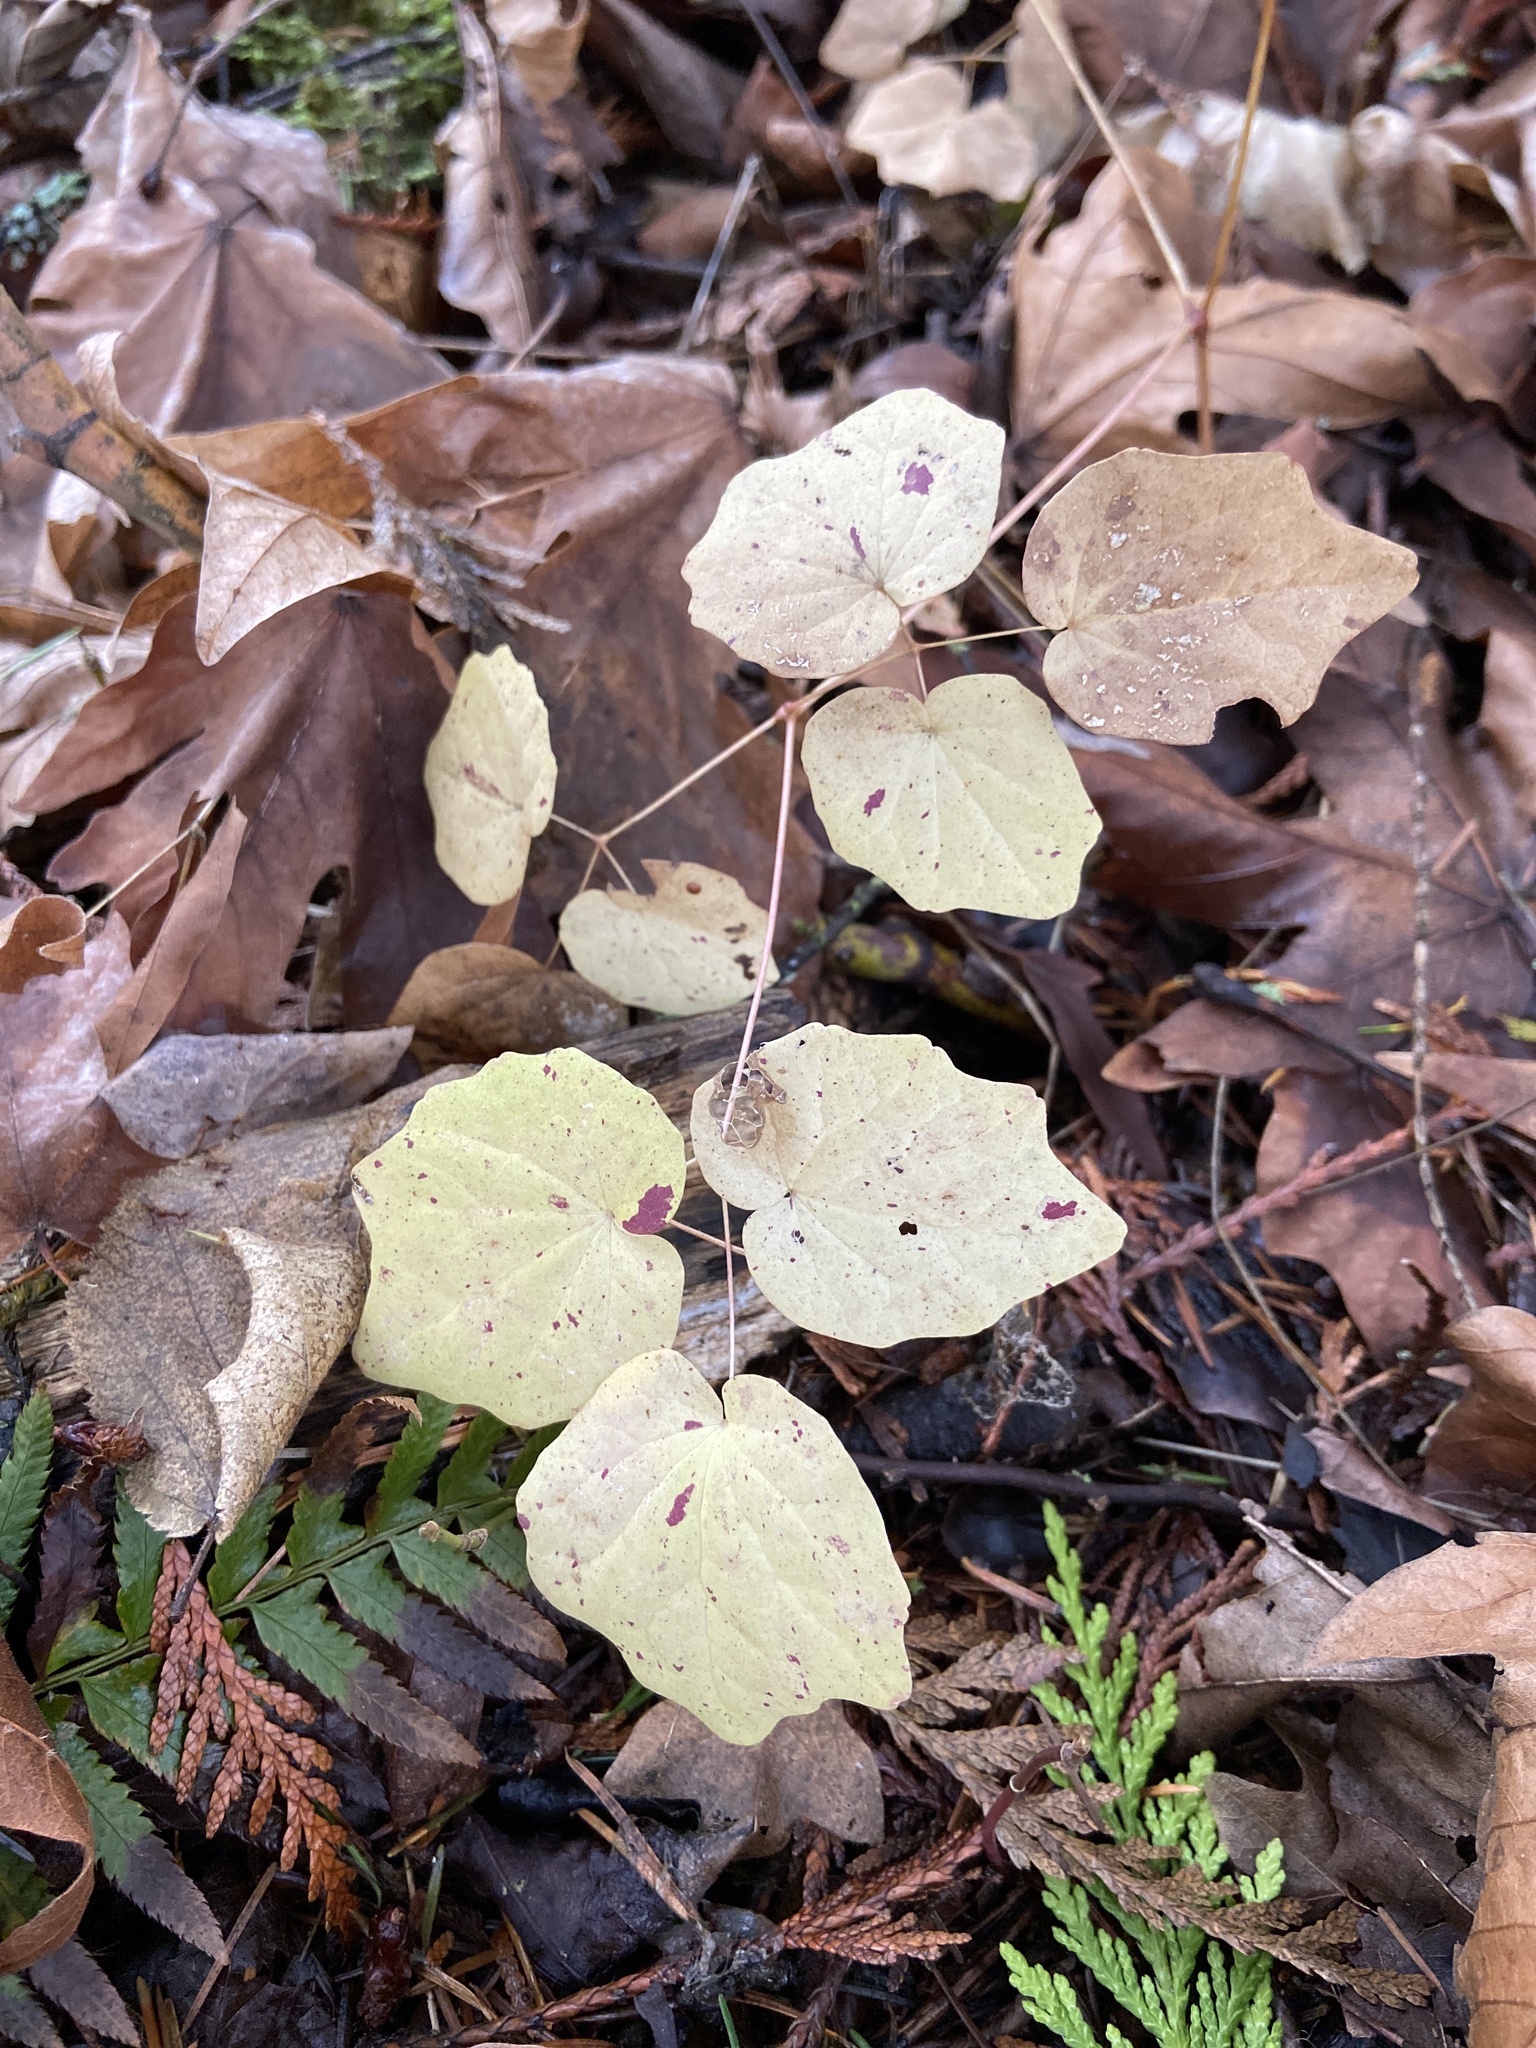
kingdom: Plantae
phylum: Tracheophyta
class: Magnoliopsida
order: Ranunculales
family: Berberidaceae
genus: Vancouveria
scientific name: Vancouveria hexandra
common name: Northern inside-out-flower
